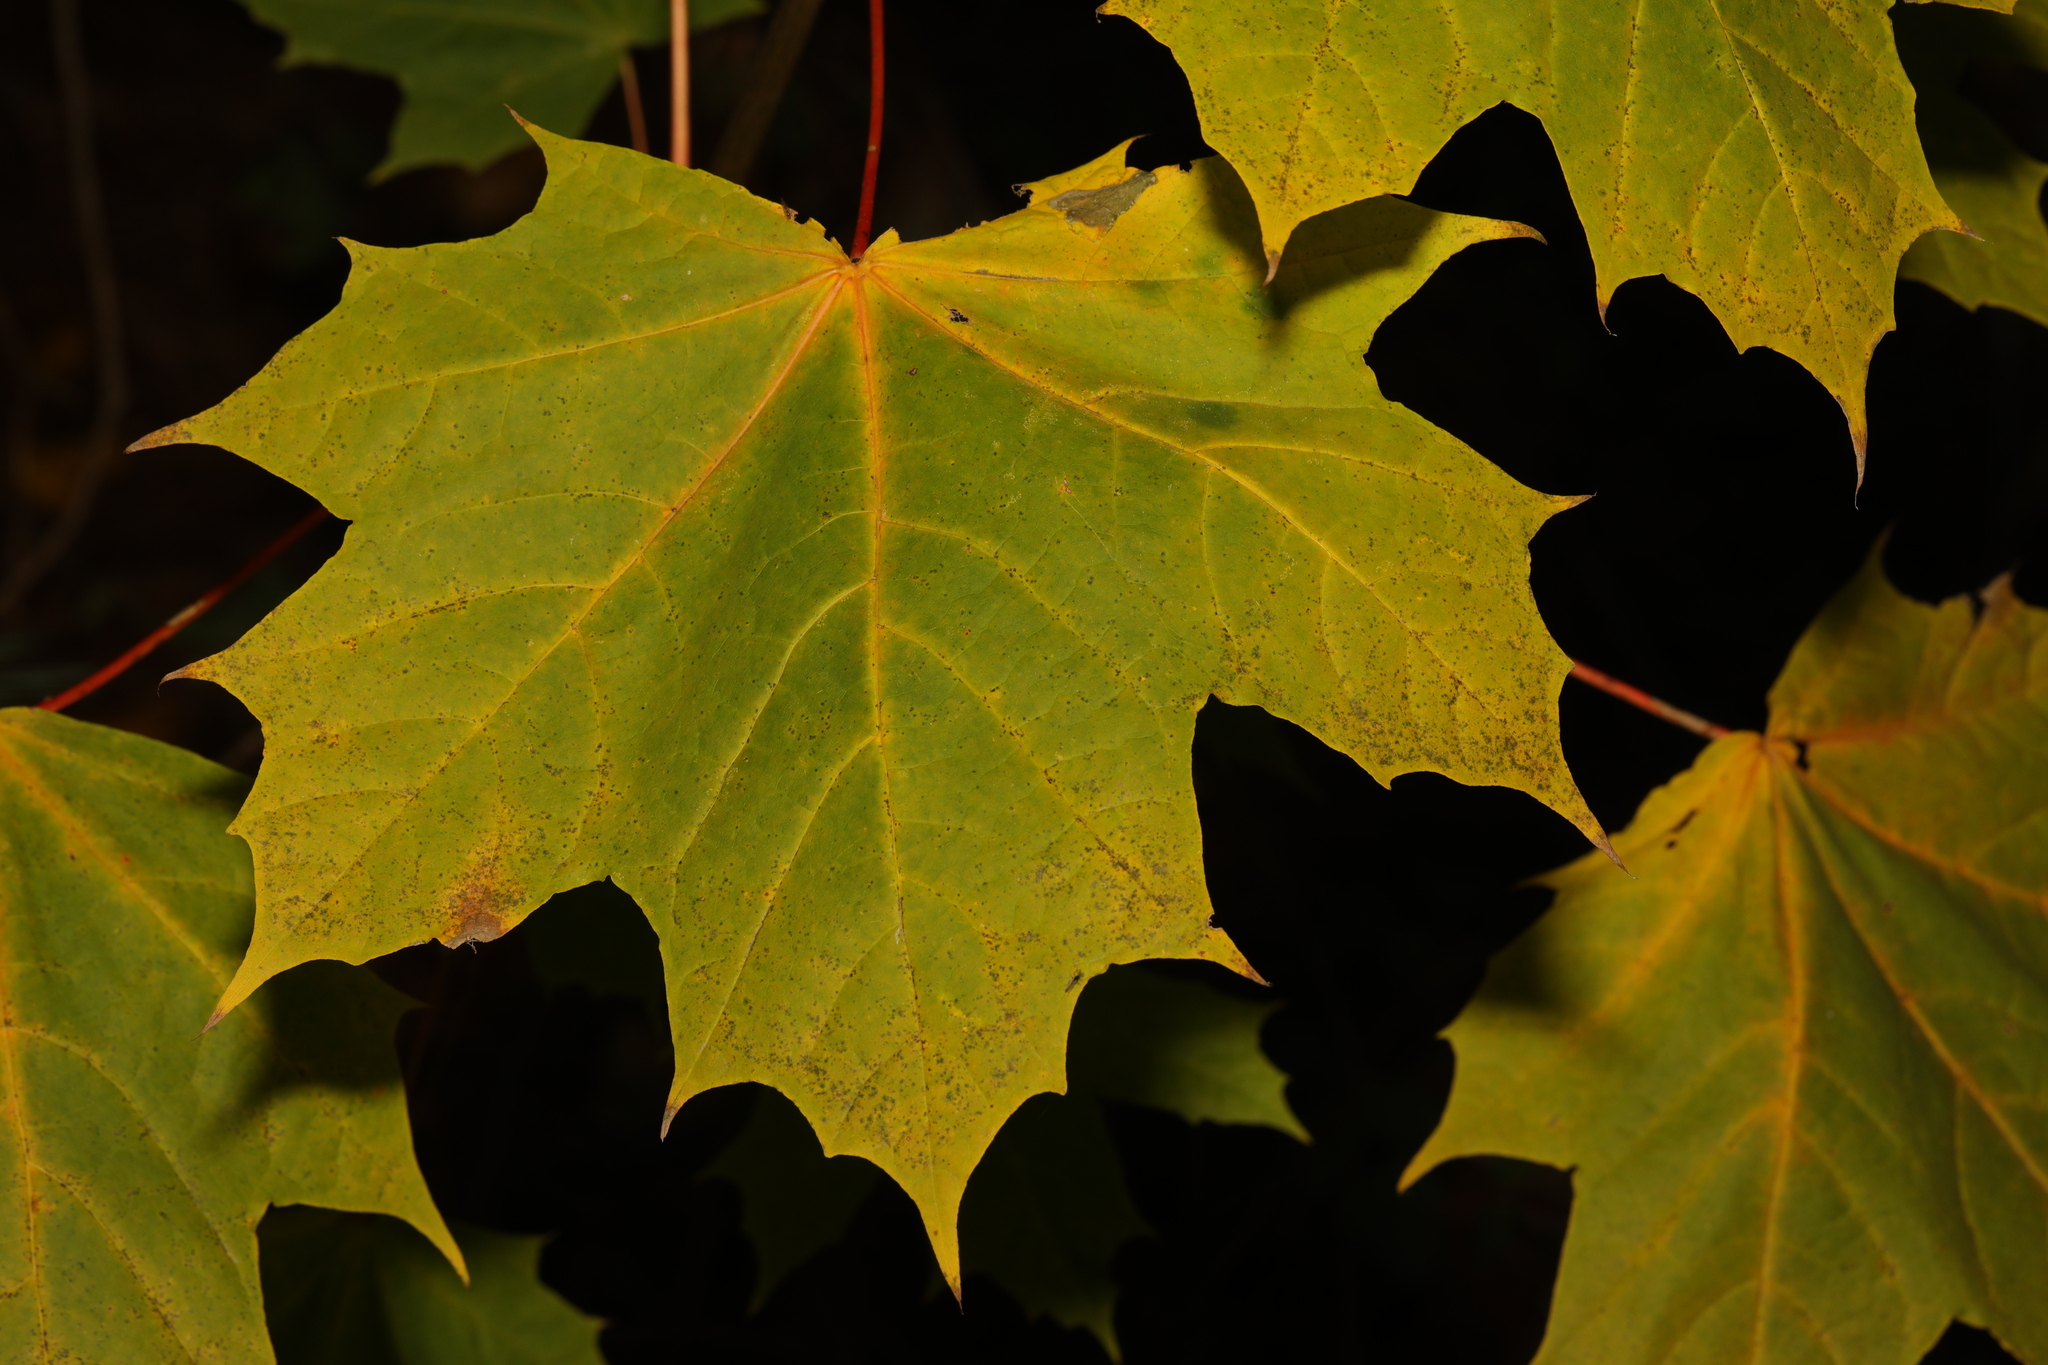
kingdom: Plantae
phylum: Tracheophyta
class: Magnoliopsida
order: Sapindales
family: Sapindaceae
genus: Acer
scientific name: Acer platanoides
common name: Norway maple
